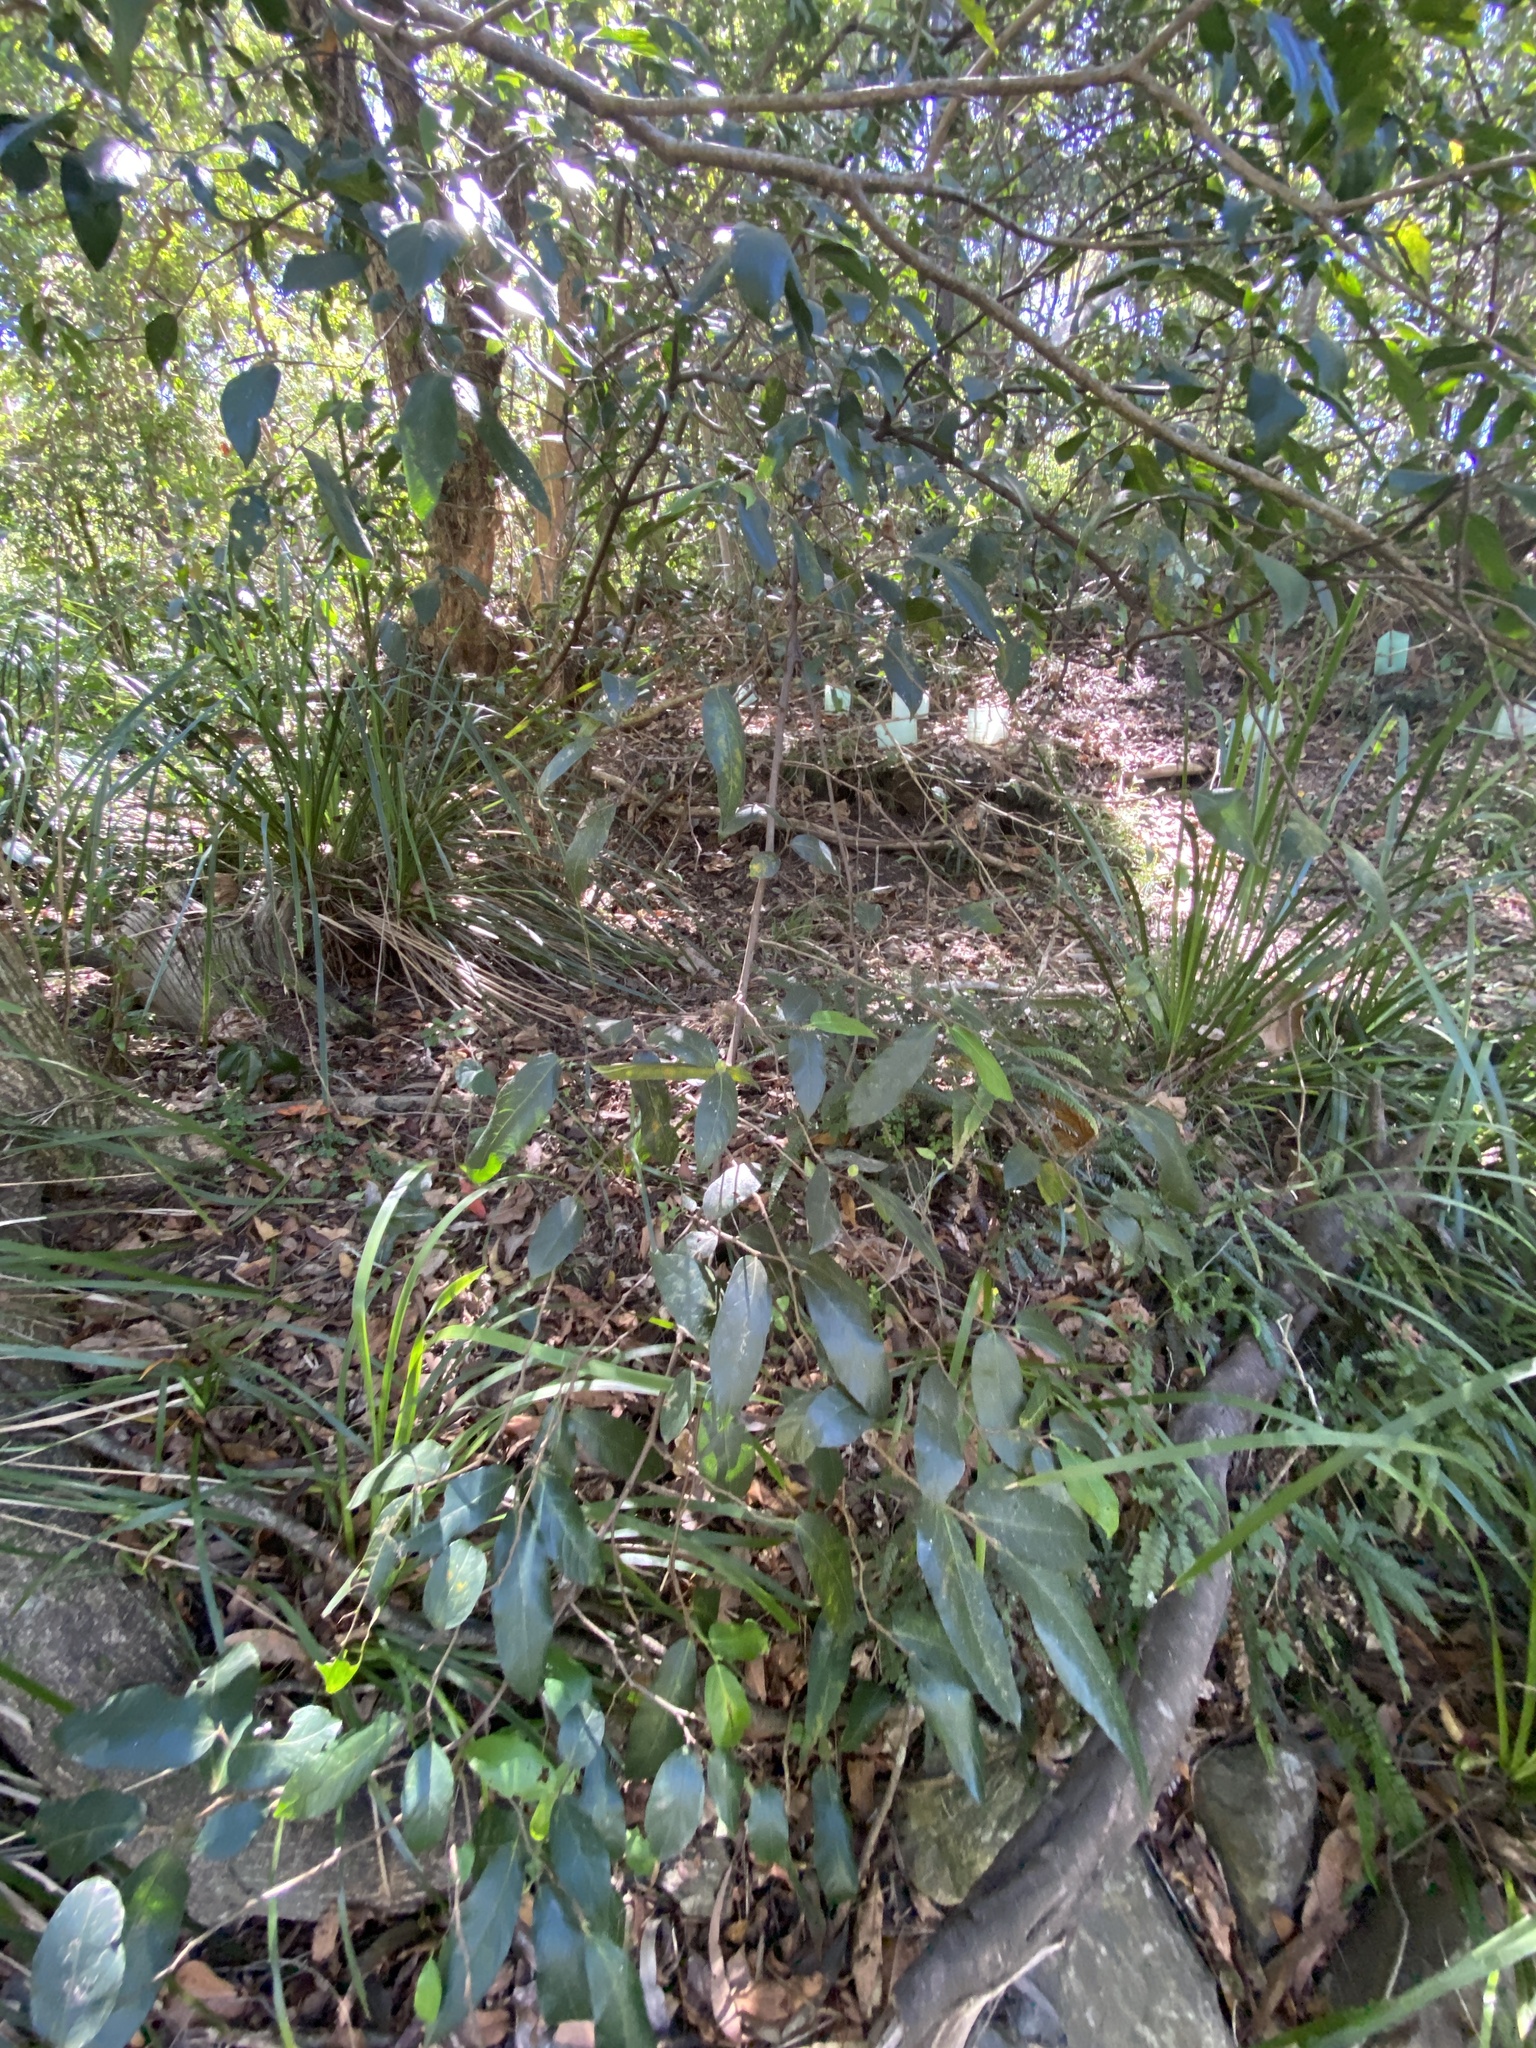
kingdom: Plantae
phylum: Tracheophyta
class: Magnoliopsida
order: Rosales
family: Moraceae
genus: Ficus
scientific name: Ficus coronata
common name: Creek sandpaper fig
